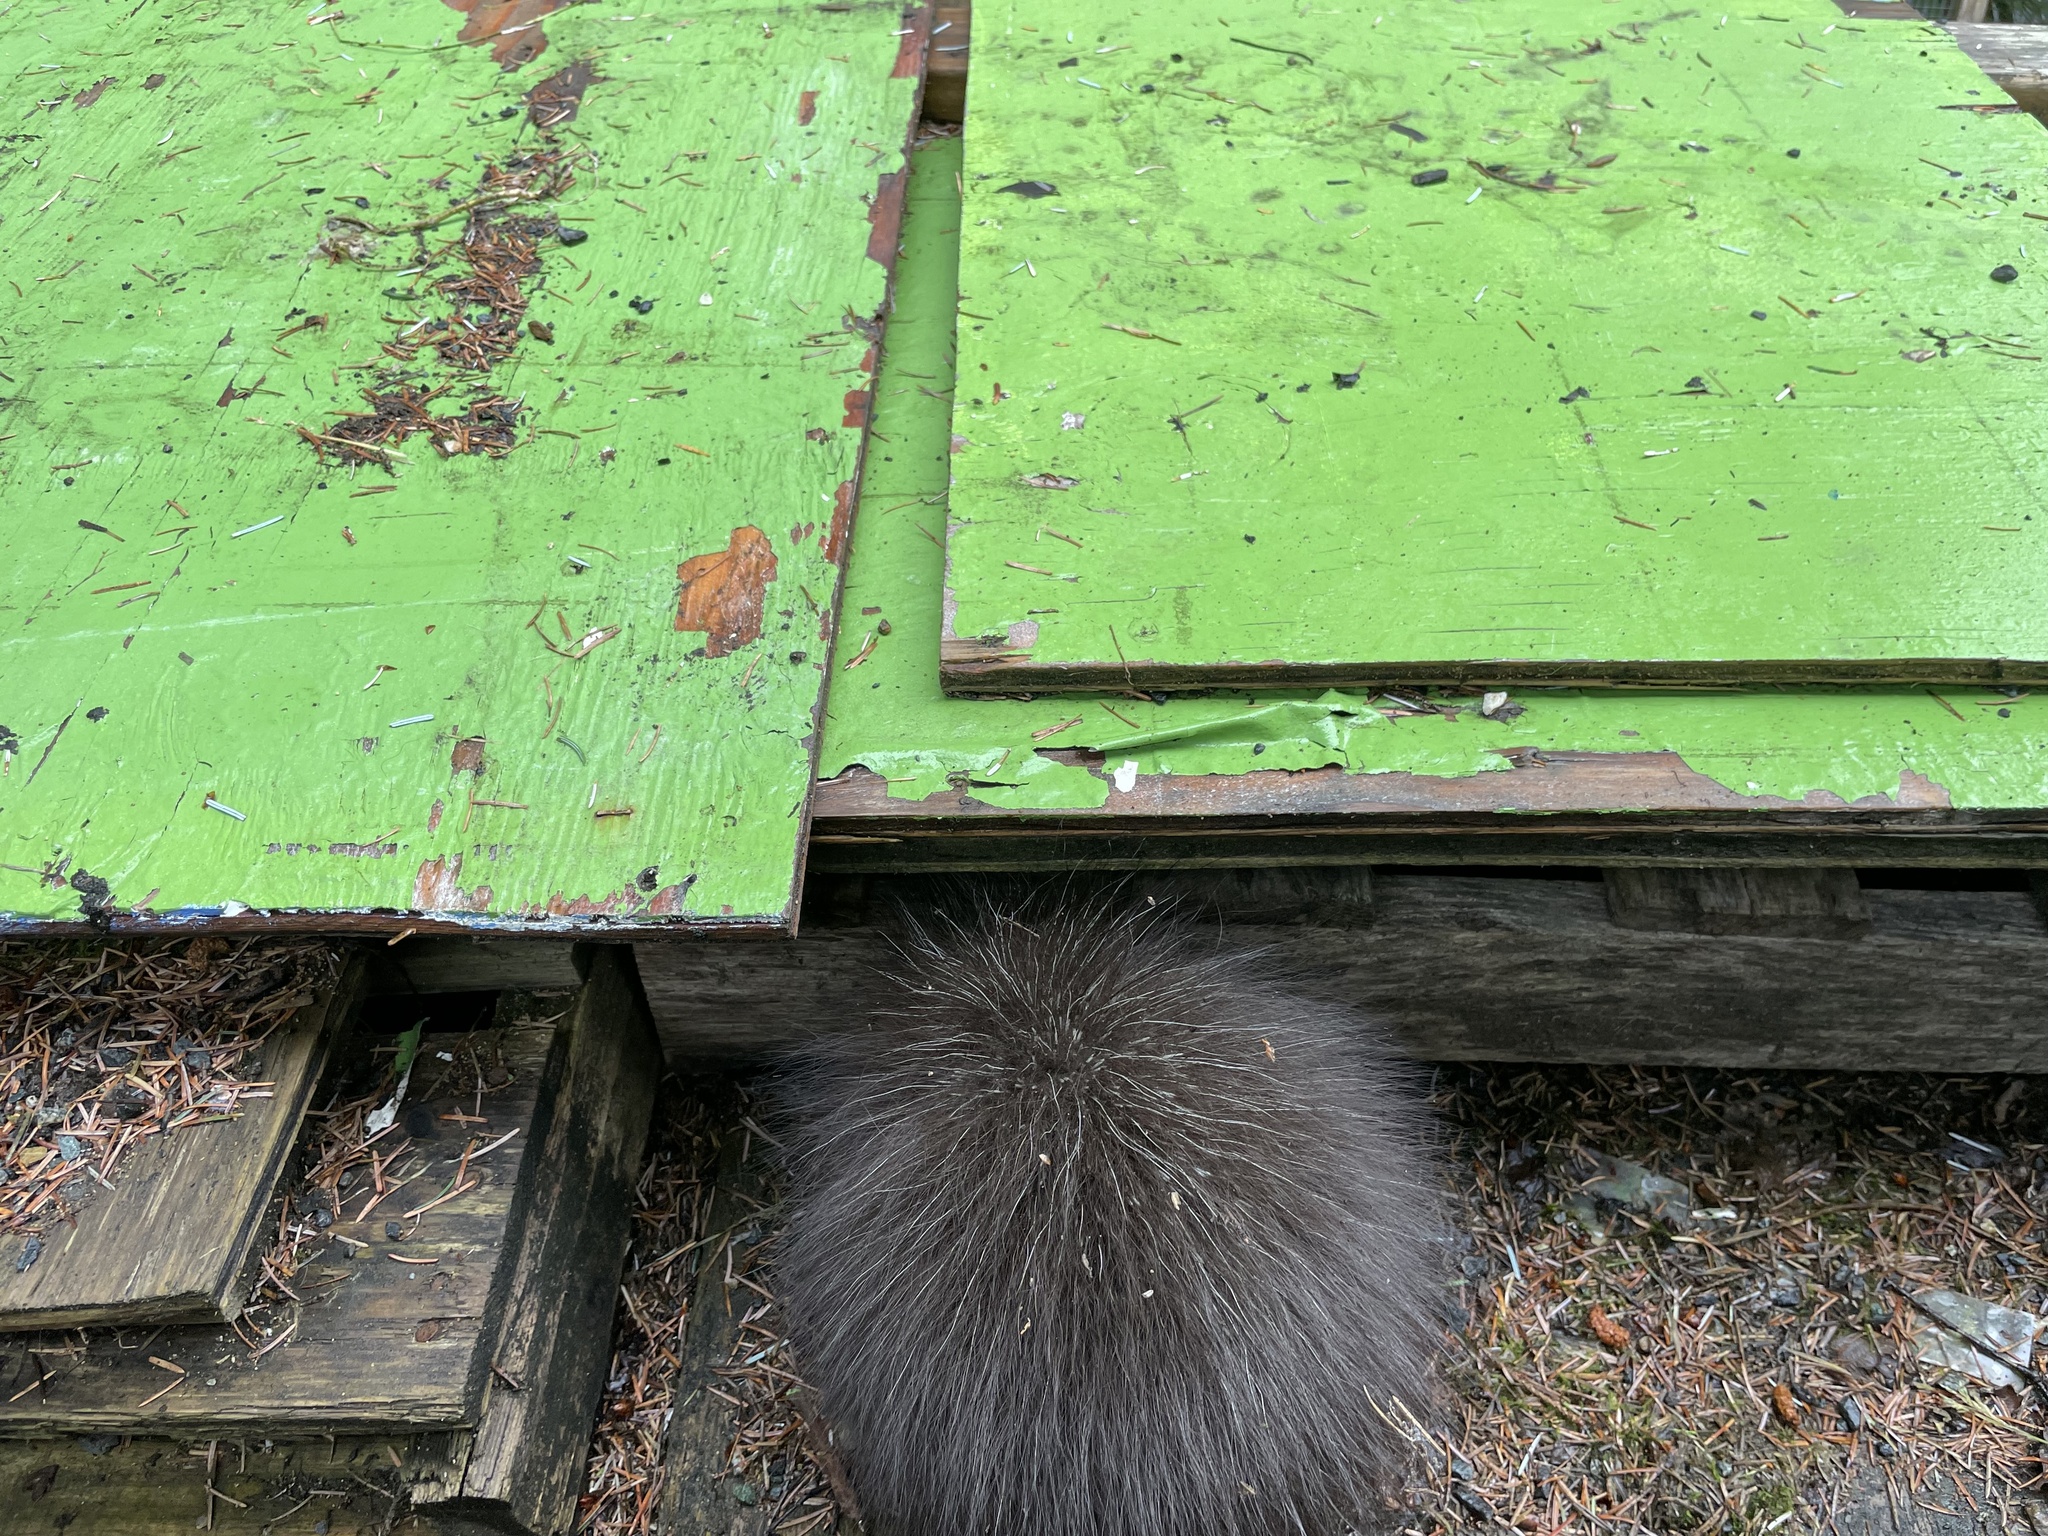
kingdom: Animalia
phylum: Chordata
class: Mammalia
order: Rodentia
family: Erethizontidae
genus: Erethizon
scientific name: Erethizon dorsatus
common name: North american porcupine
